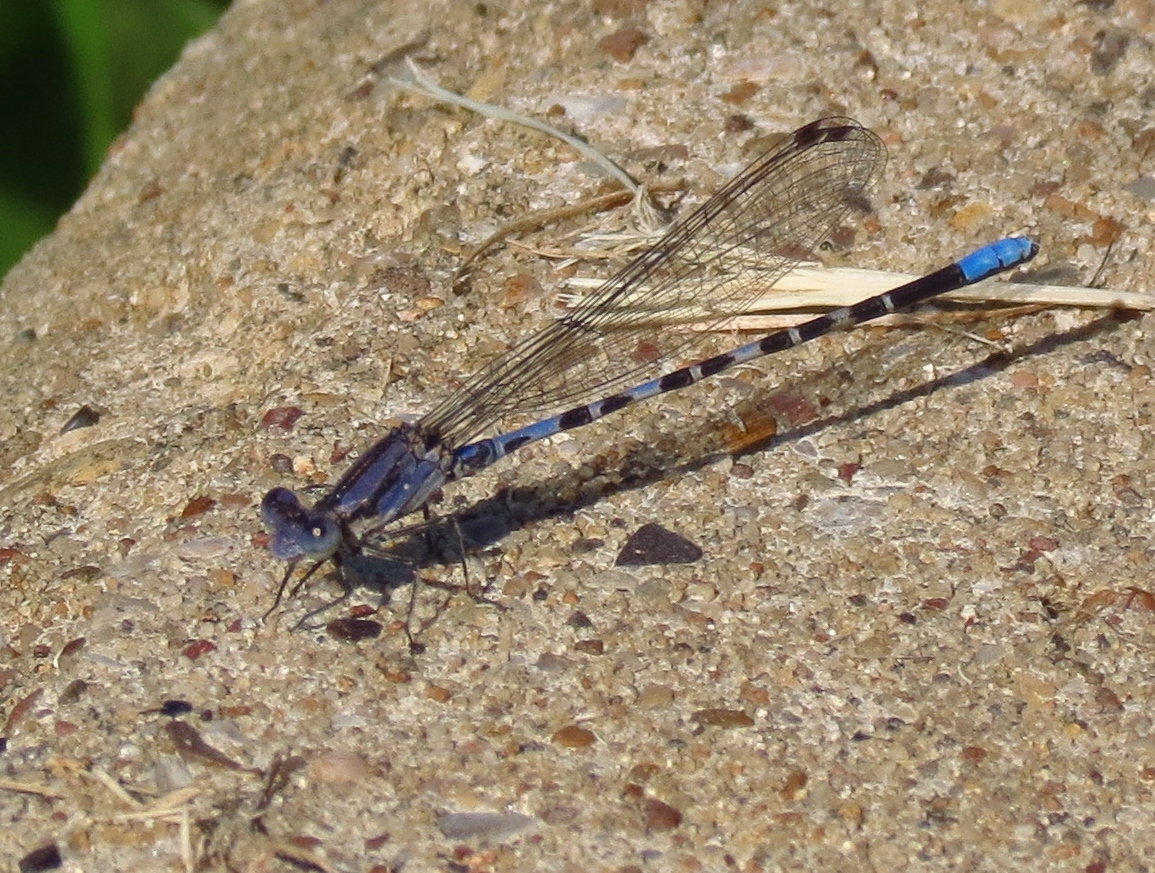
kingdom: Animalia
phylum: Arthropoda
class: Insecta
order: Odonata
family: Coenagrionidae
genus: Argia
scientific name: Argia immunda
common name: Kiowa dancer
